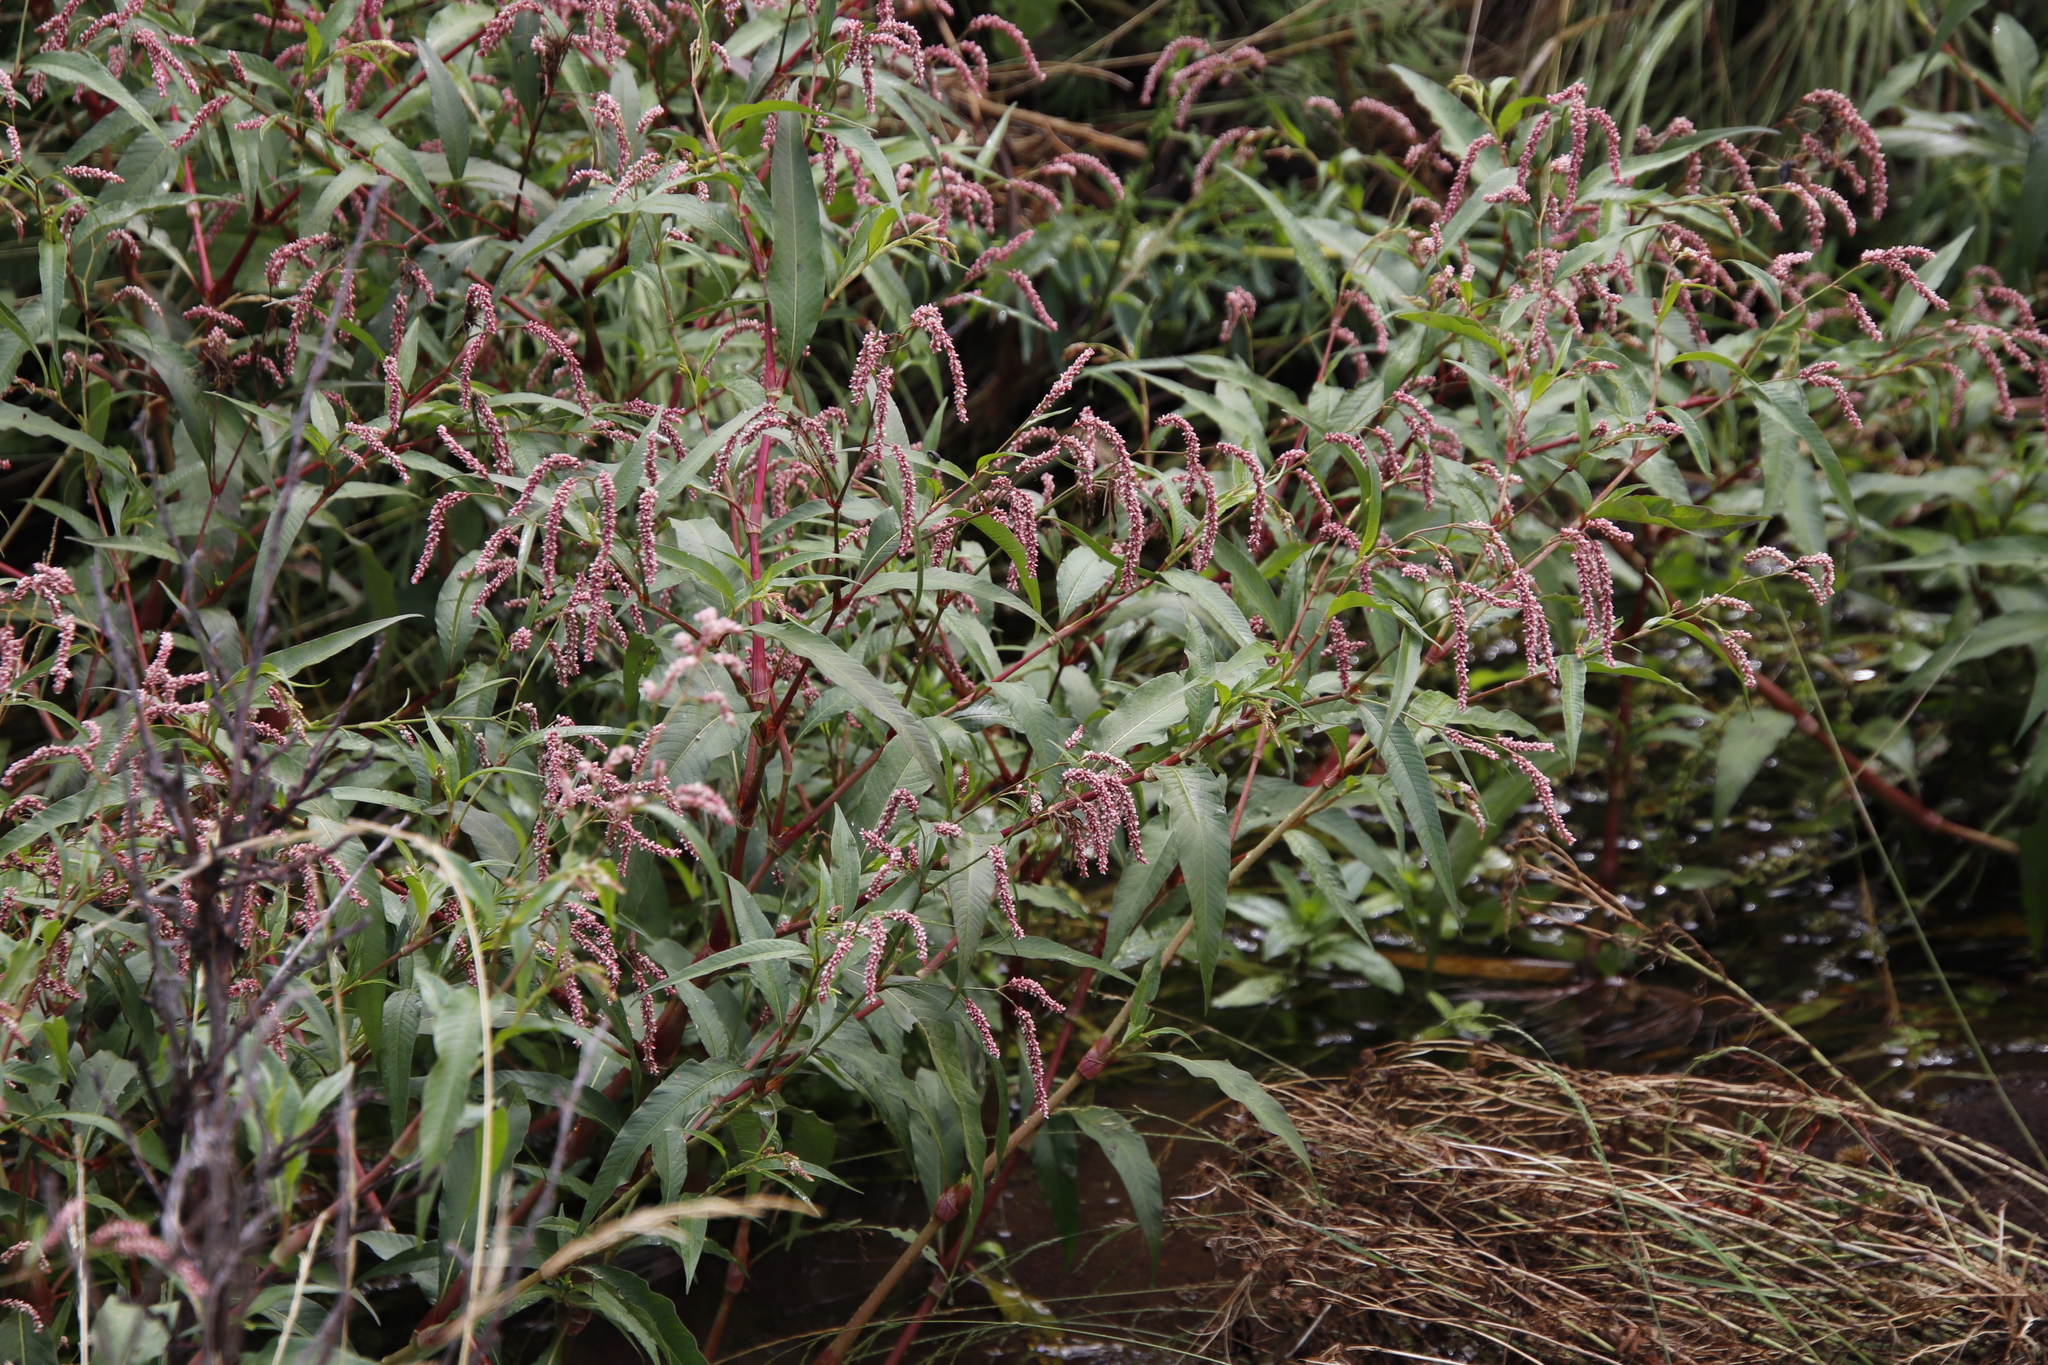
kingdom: Plantae
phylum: Tracheophyta
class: Magnoliopsida
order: Caryophyllales
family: Polygonaceae
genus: Persicaria
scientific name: Persicaria lapathifolia
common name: Curlytop knotweed
